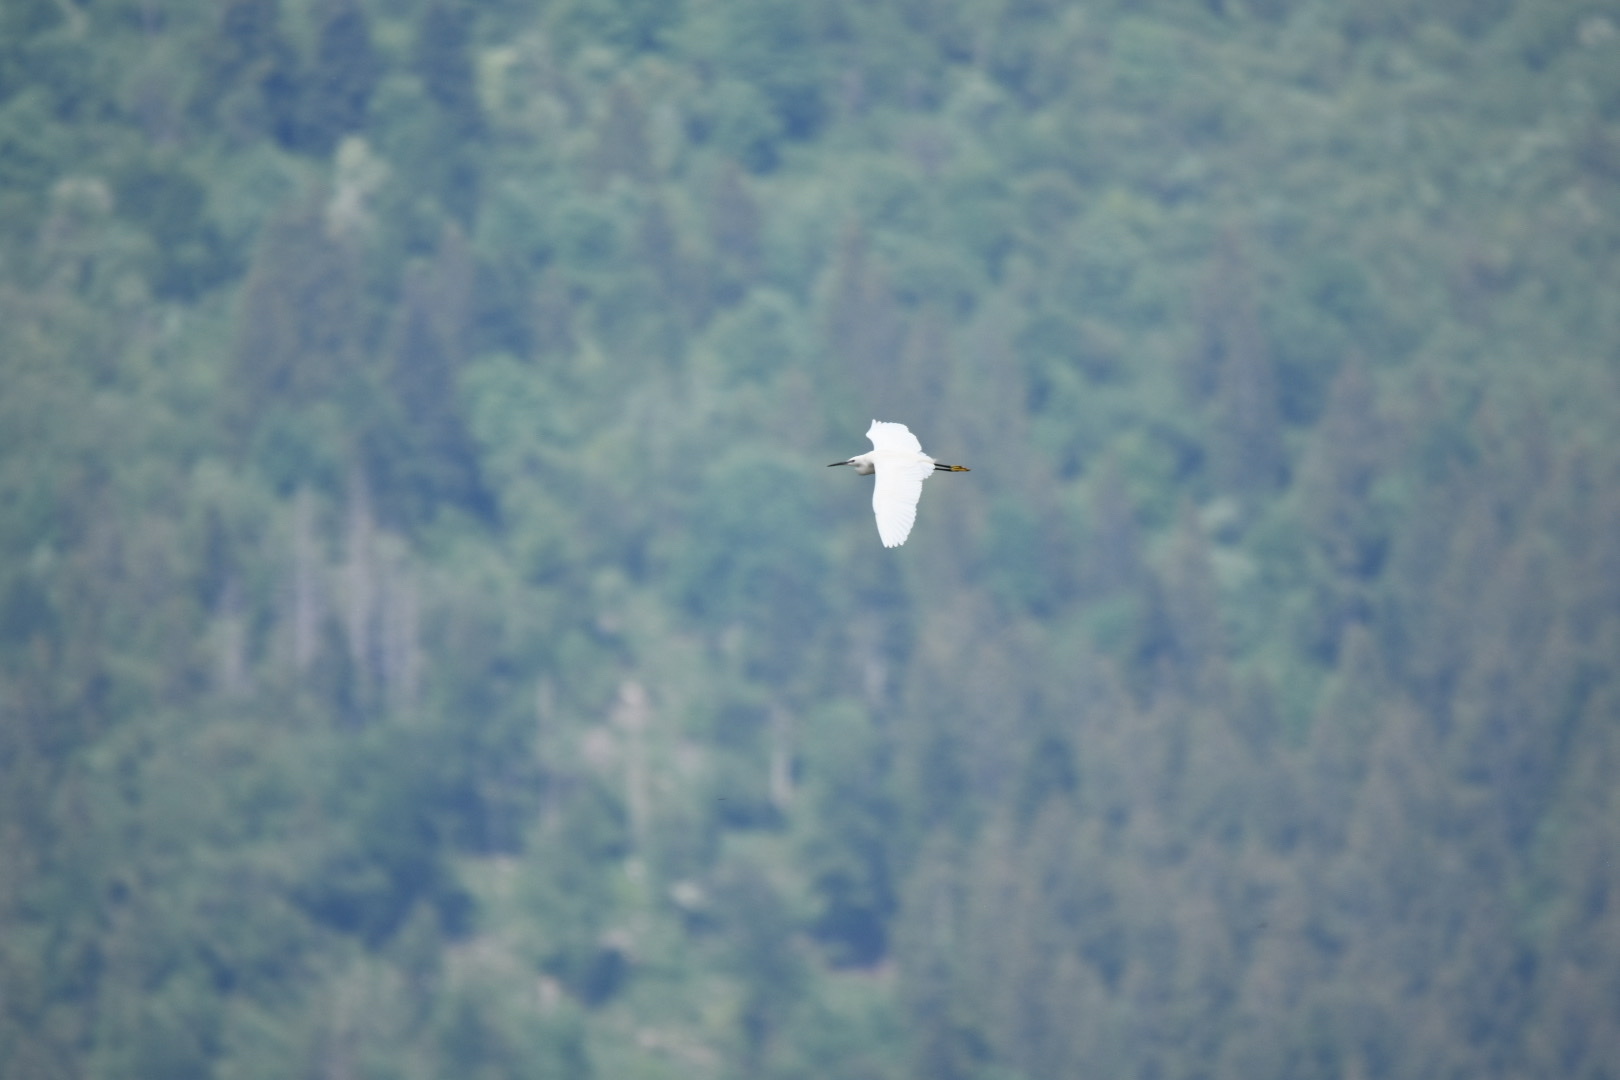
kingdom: Animalia
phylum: Chordata
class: Aves
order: Pelecaniformes
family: Ardeidae
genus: Egretta
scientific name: Egretta garzetta
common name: Little egret
